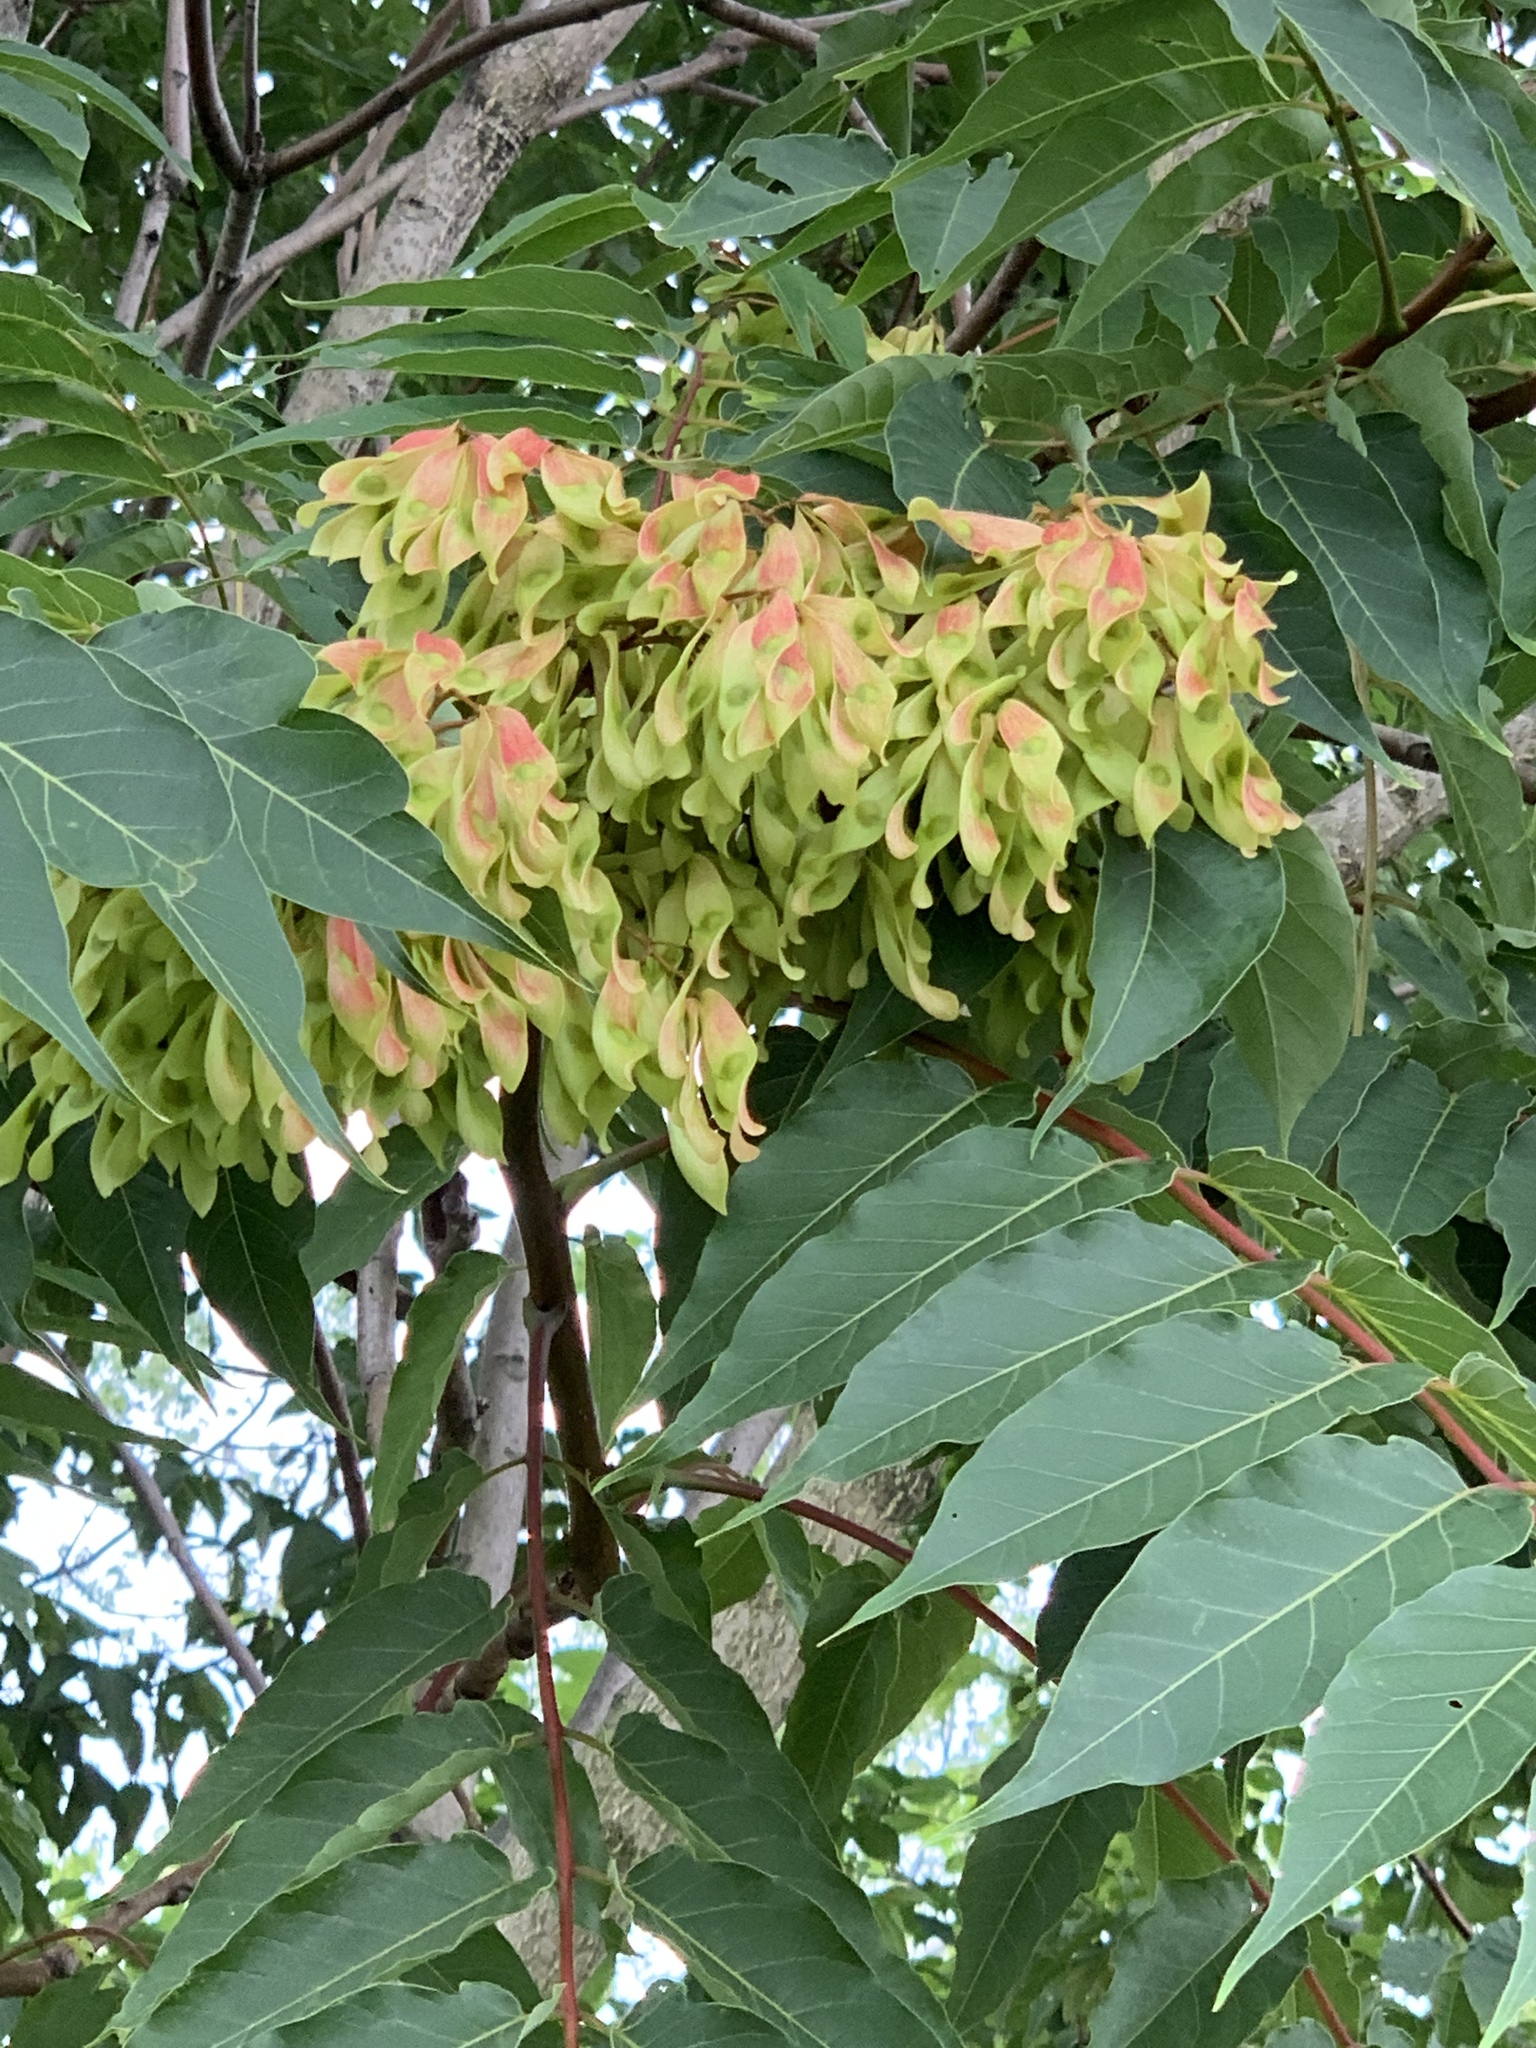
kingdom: Plantae
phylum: Tracheophyta
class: Magnoliopsida
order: Sapindales
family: Simaroubaceae
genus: Ailanthus
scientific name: Ailanthus altissima
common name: Tree-of-heaven
